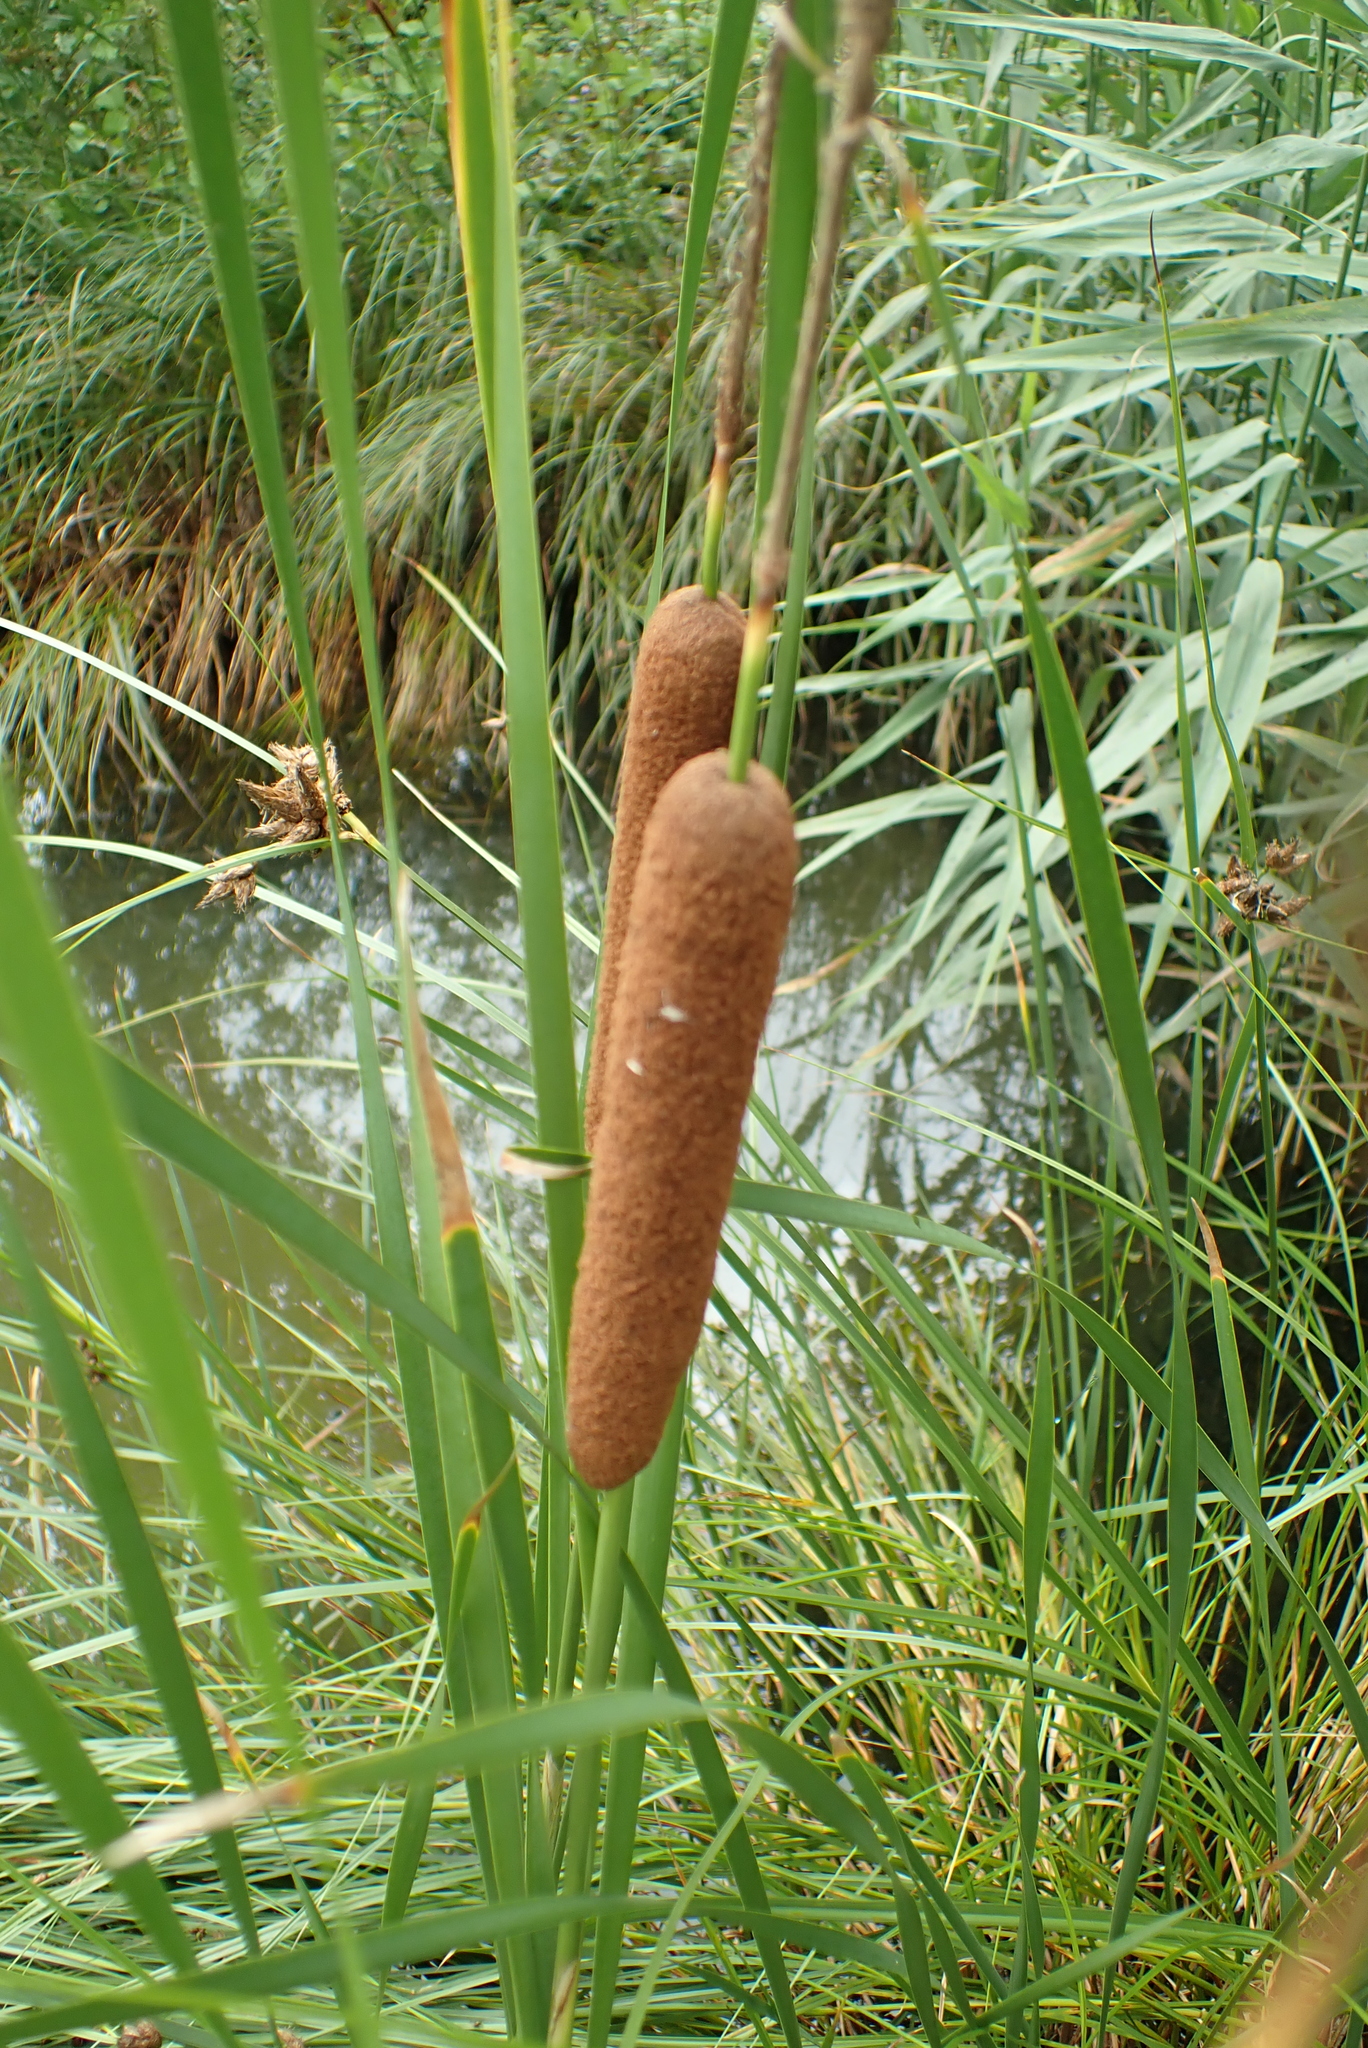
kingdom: Plantae
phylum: Tracheophyta
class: Liliopsida
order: Poales
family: Typhaceae
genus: Typha
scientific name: Typha angustifolia
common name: Lesser bulrush
